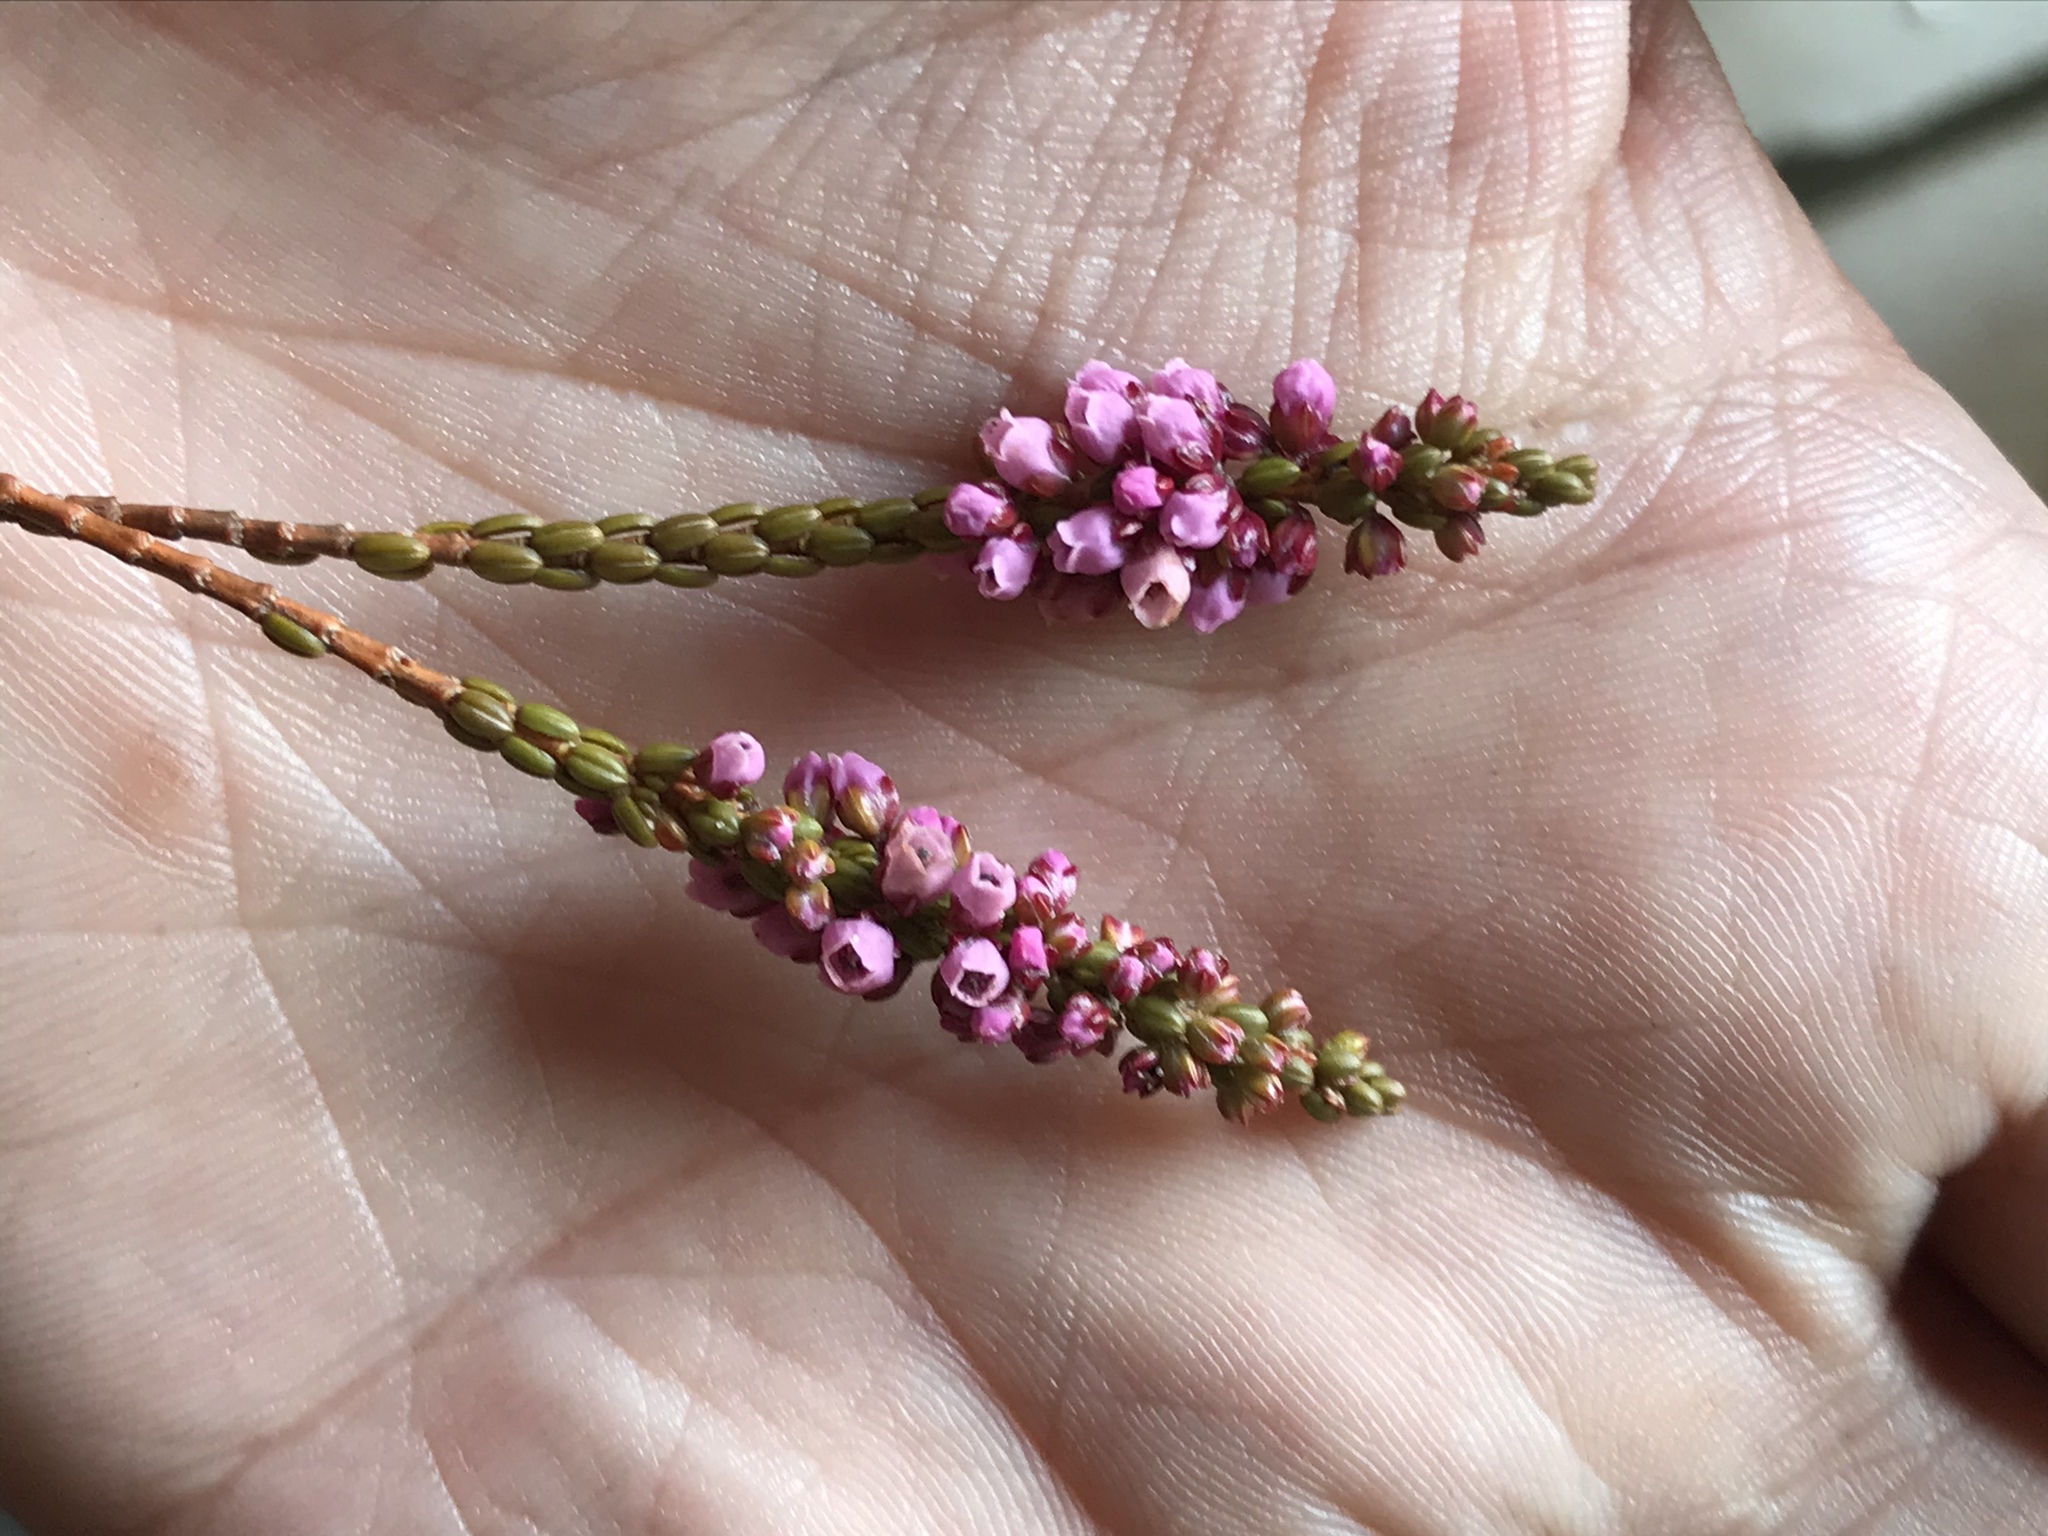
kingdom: Plantae
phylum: Tracheophyta
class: Magnoliopsida
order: Ericales
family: Ericaceae
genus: Erica
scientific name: Erica pulchella
